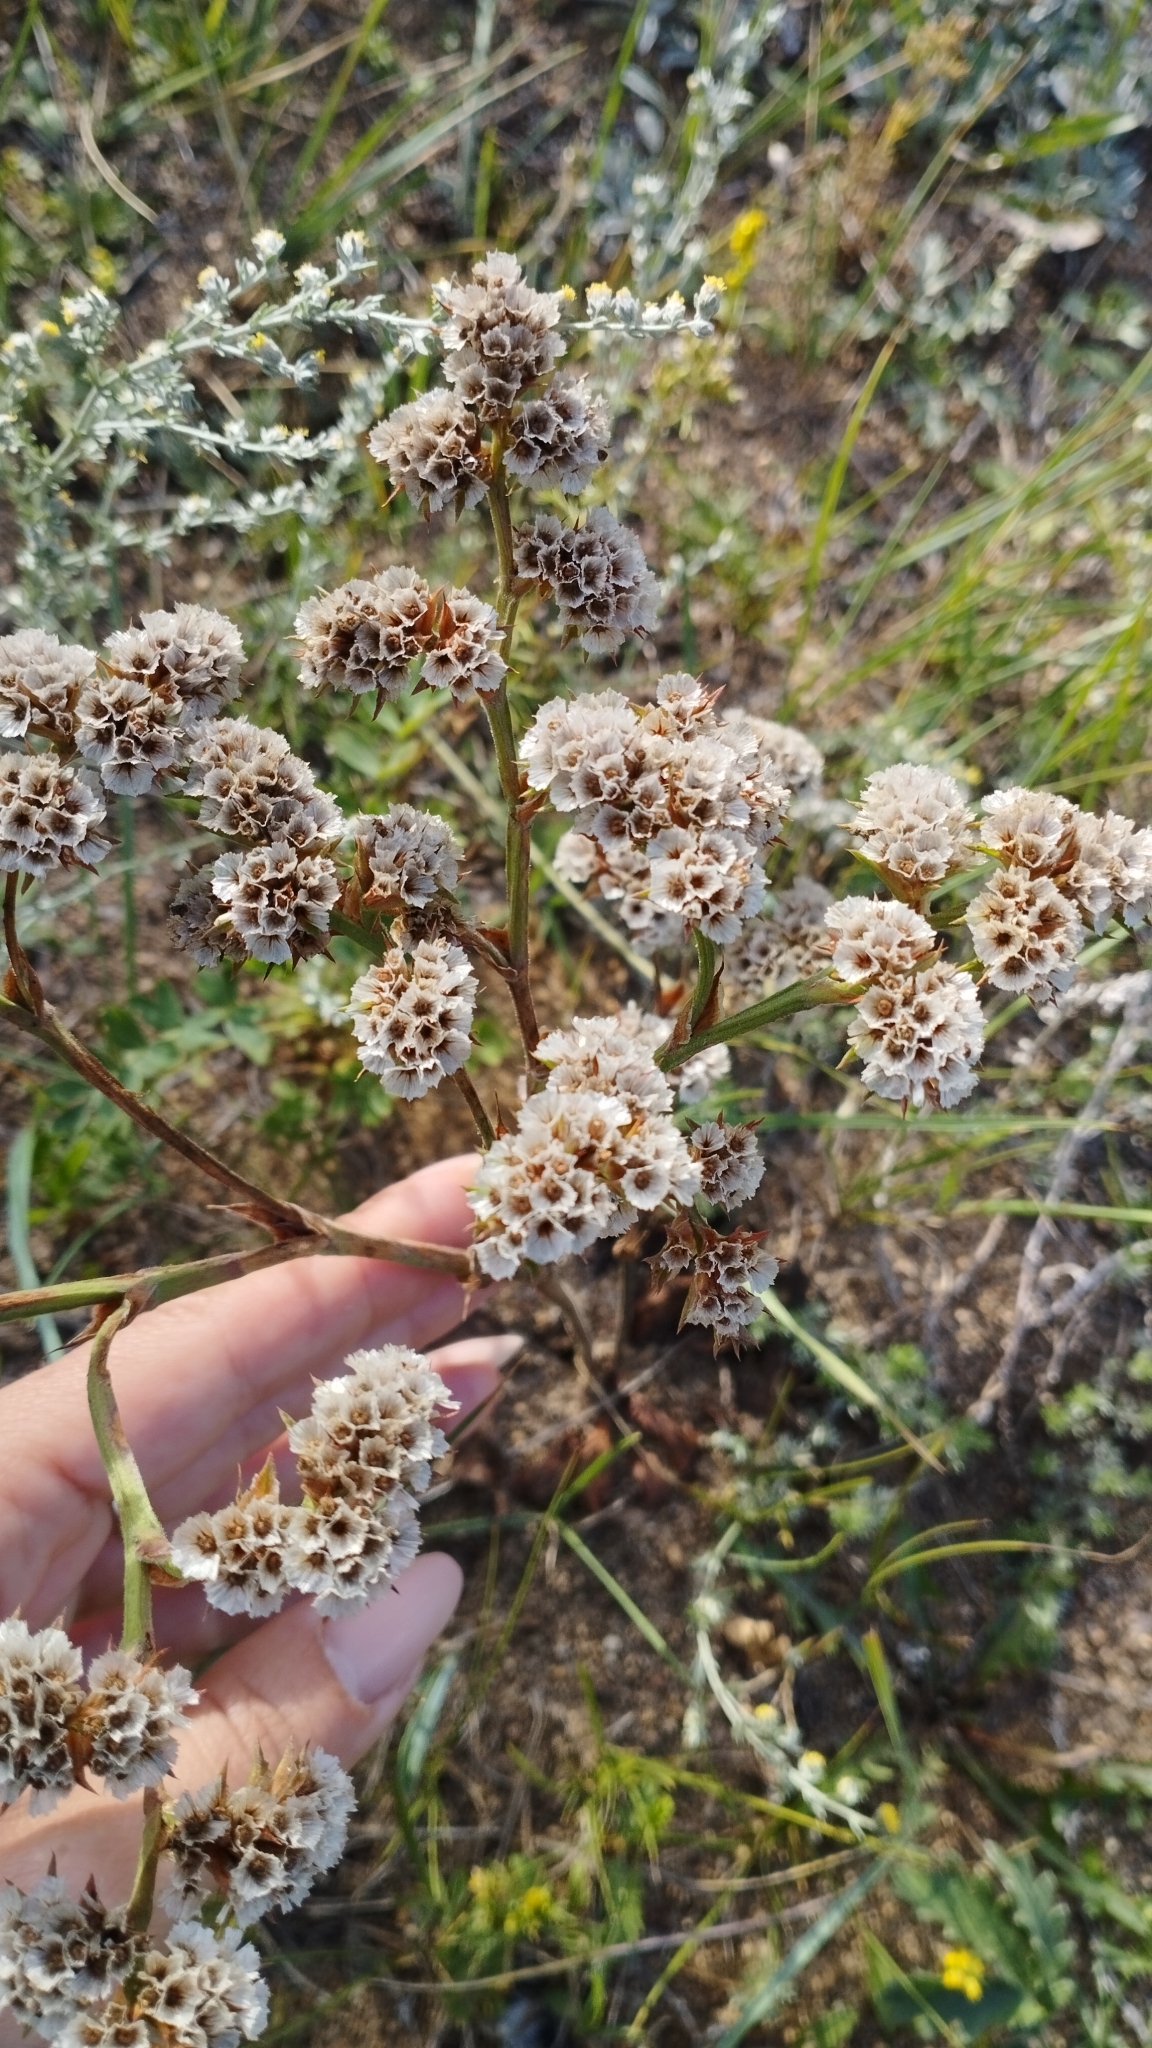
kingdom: Plantae
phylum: Tracheophyta
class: Magnoliopsida
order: Caryophyllales
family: Plumbaginaceae
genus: Goniolimon
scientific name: Goniolimon speciosum
